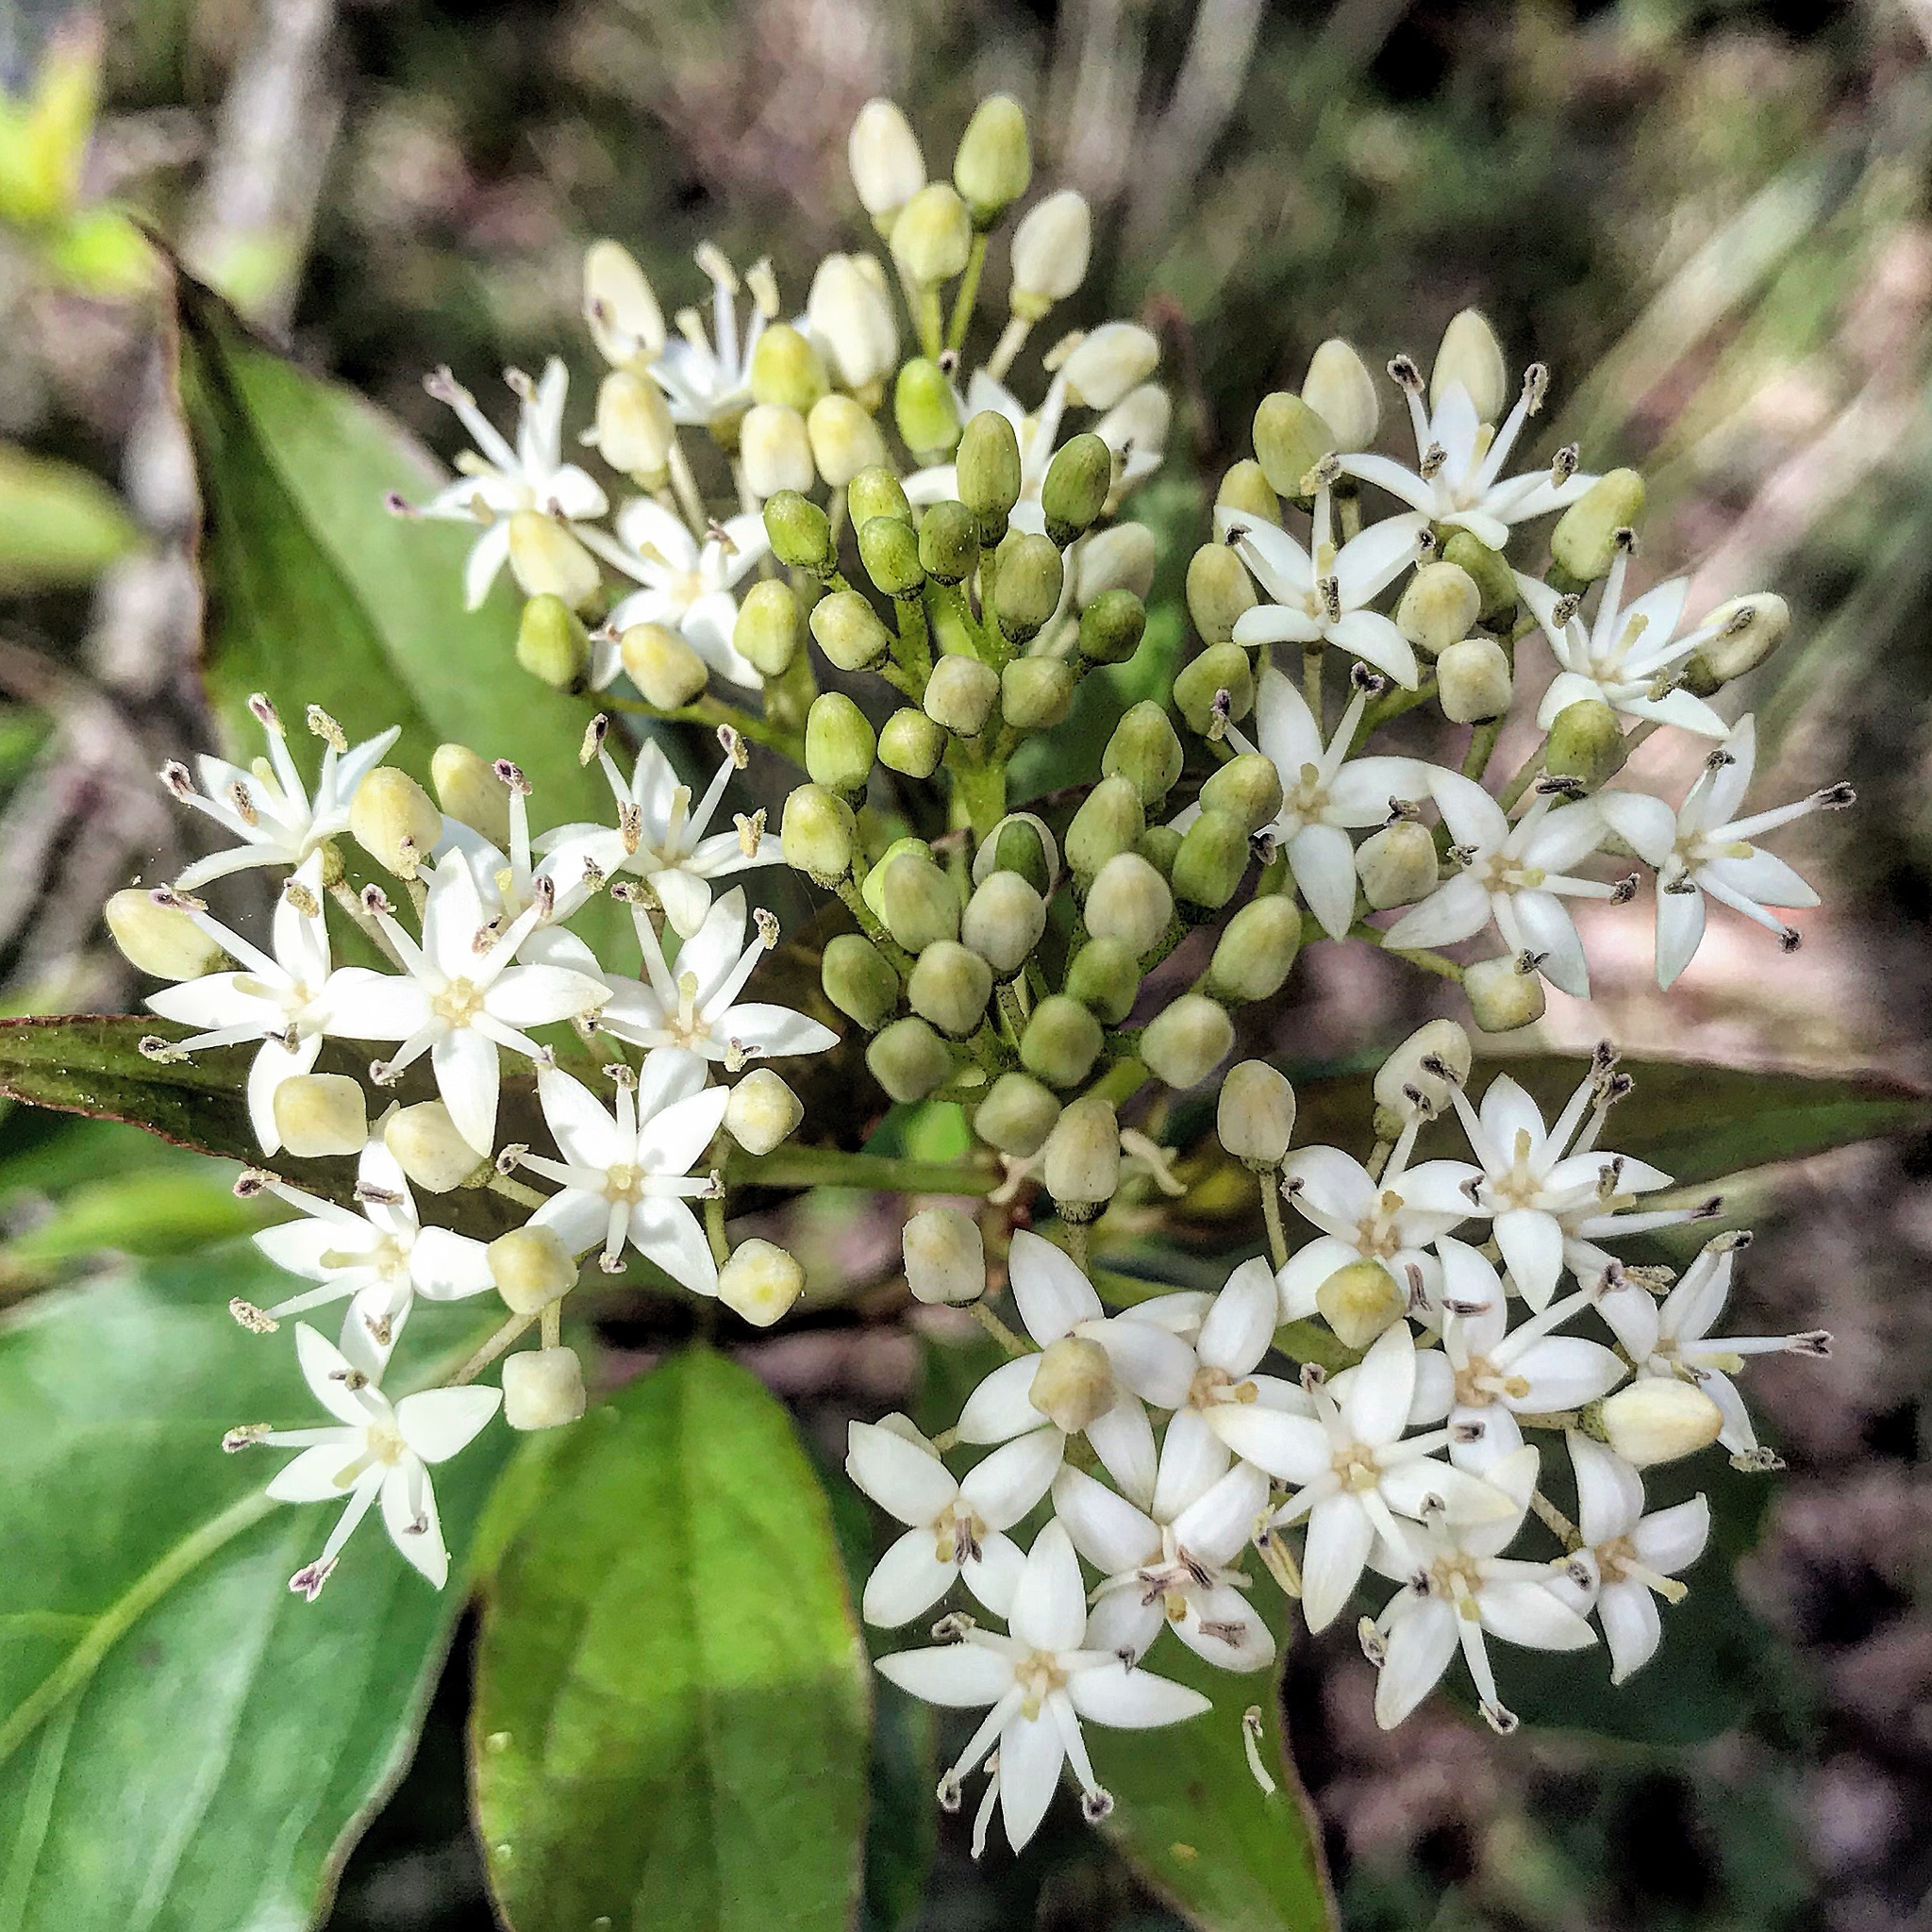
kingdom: Plantae
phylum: Tracheophyta
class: Magnoliopsida
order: Cornales
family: Cornaceae
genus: Cornus
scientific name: Cornus foemina
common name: Swamp dogwood
